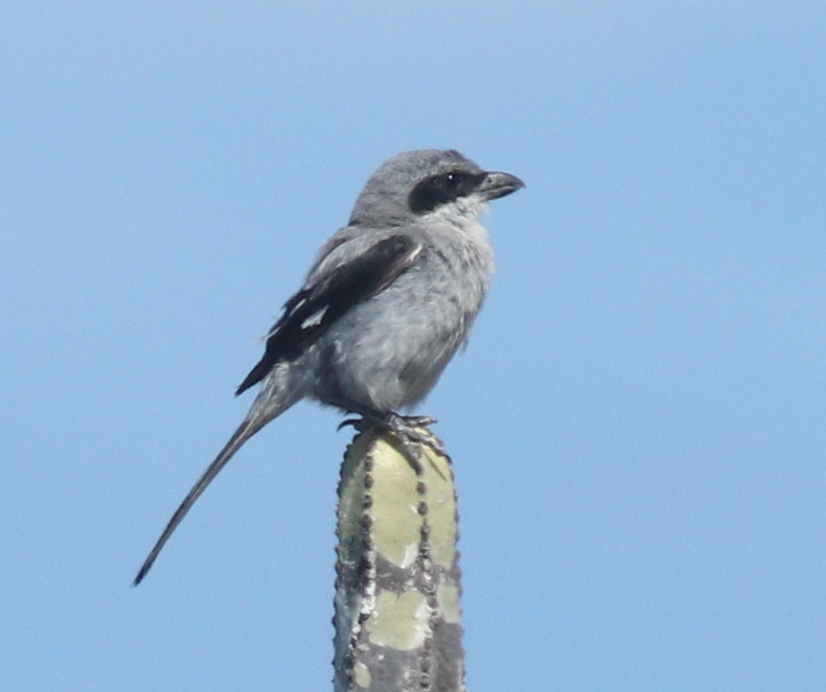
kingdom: Animalia
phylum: Chordata
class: Aves
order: Passeriformes
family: Laniidae
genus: Lanius
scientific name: Lanius excubitor
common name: Great grey shrike
